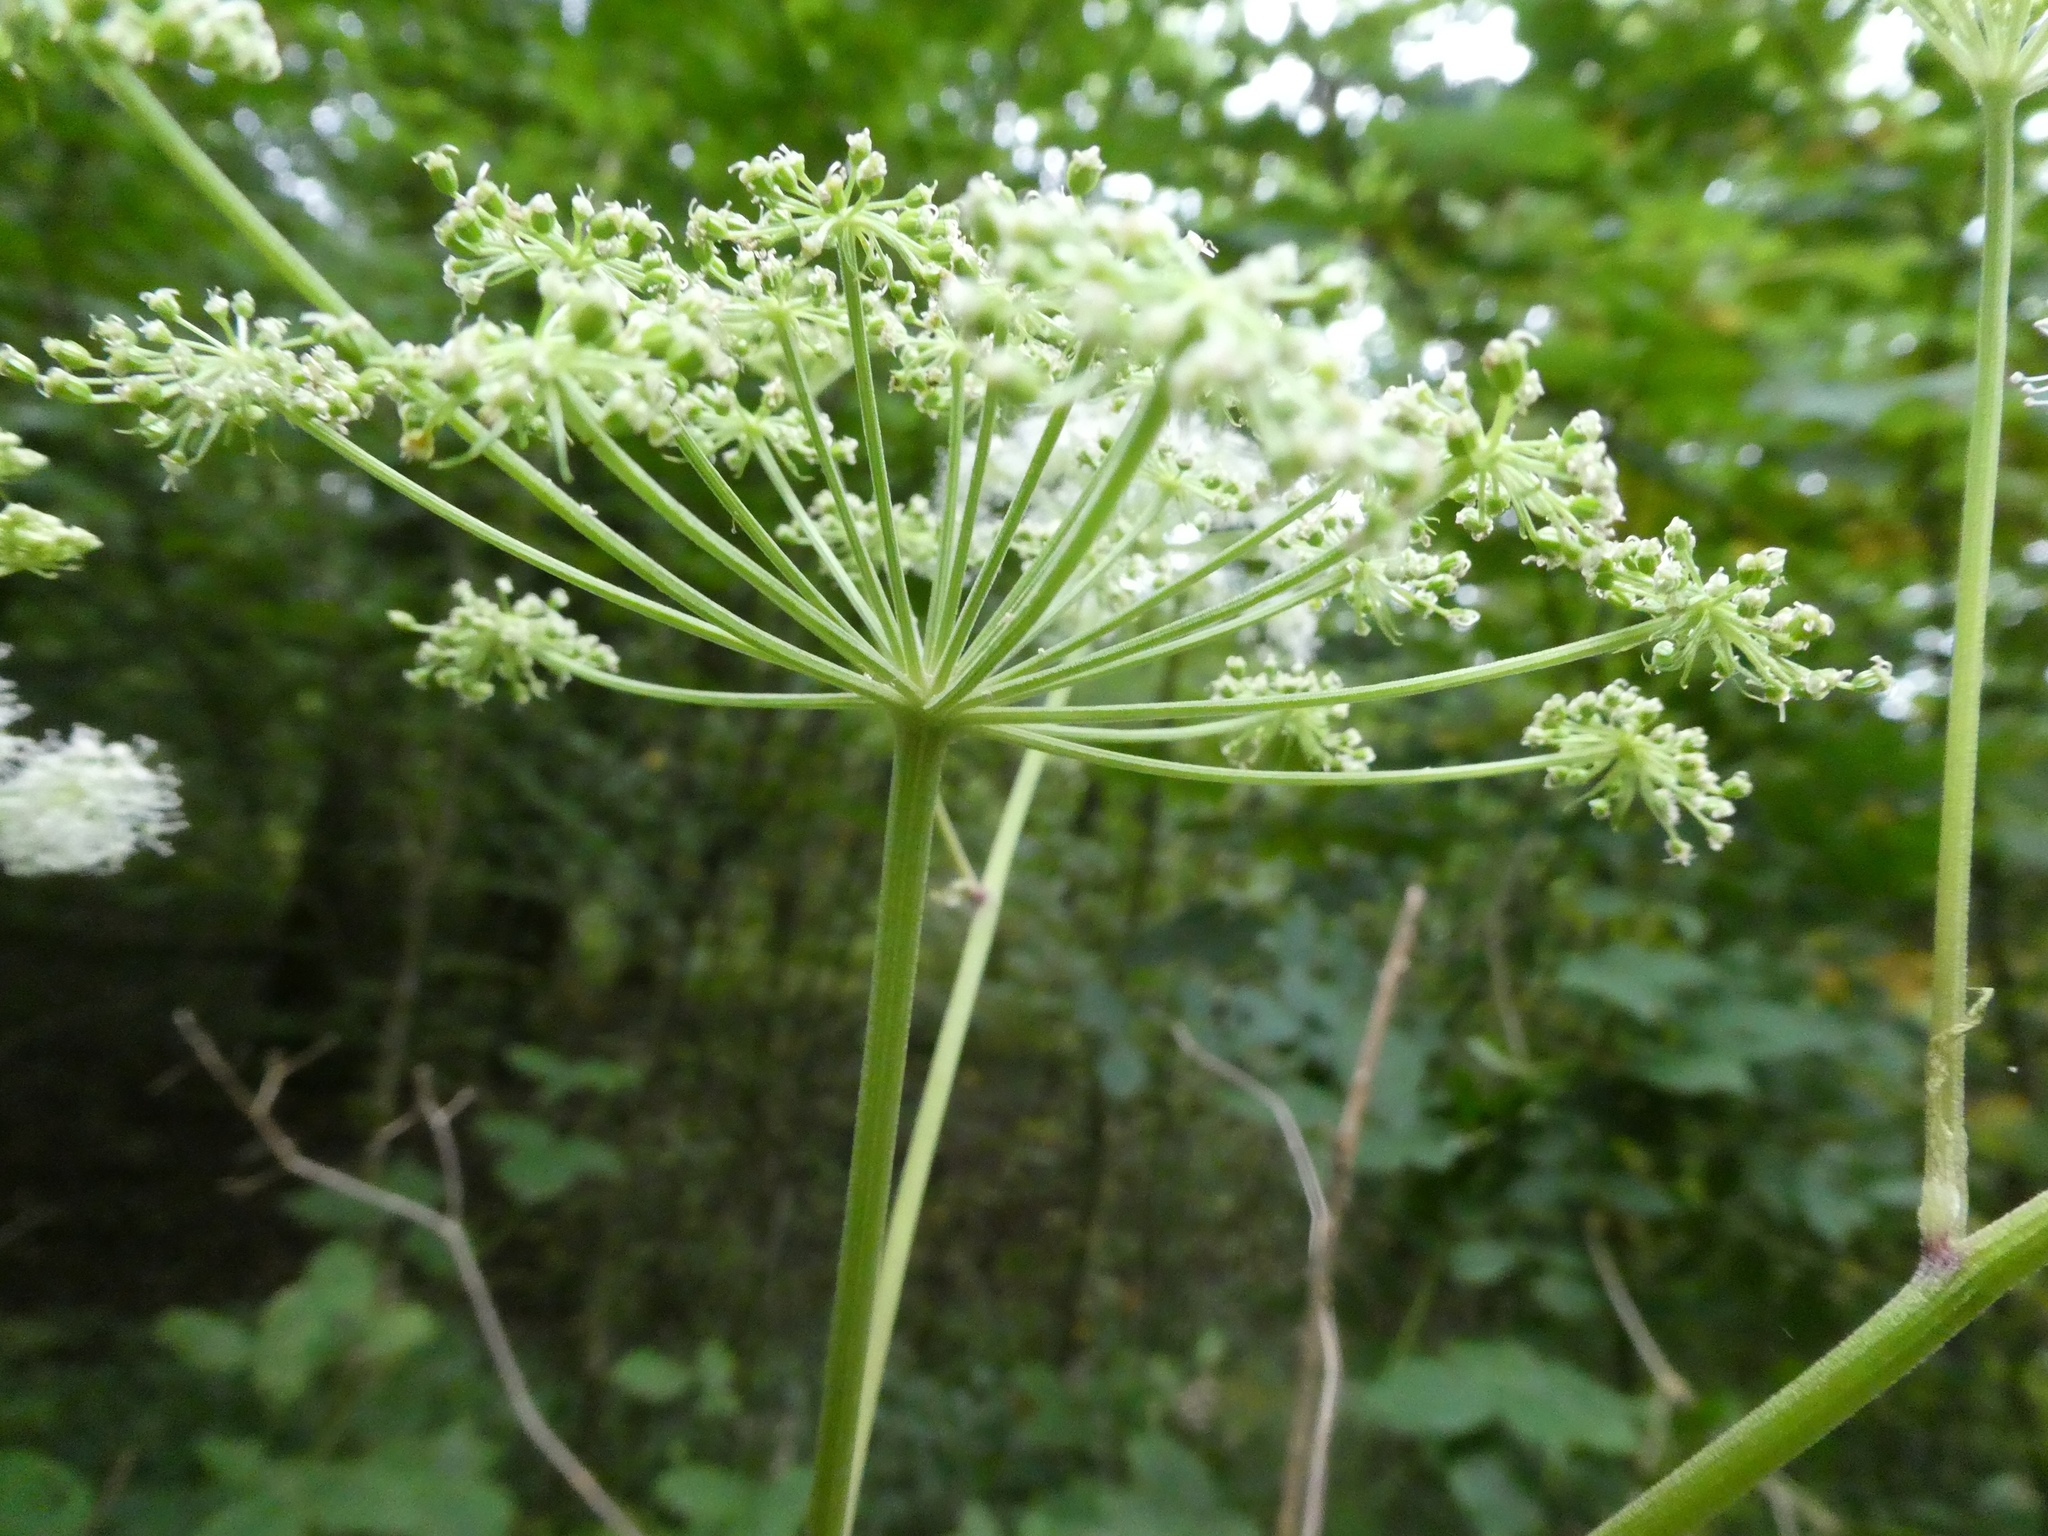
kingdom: Plantae
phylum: Tracheophyta
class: Magnoliopsida
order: Apiales
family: Apiaceae
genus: Angelica
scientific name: Angelica sylvestris
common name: Wild angelica
